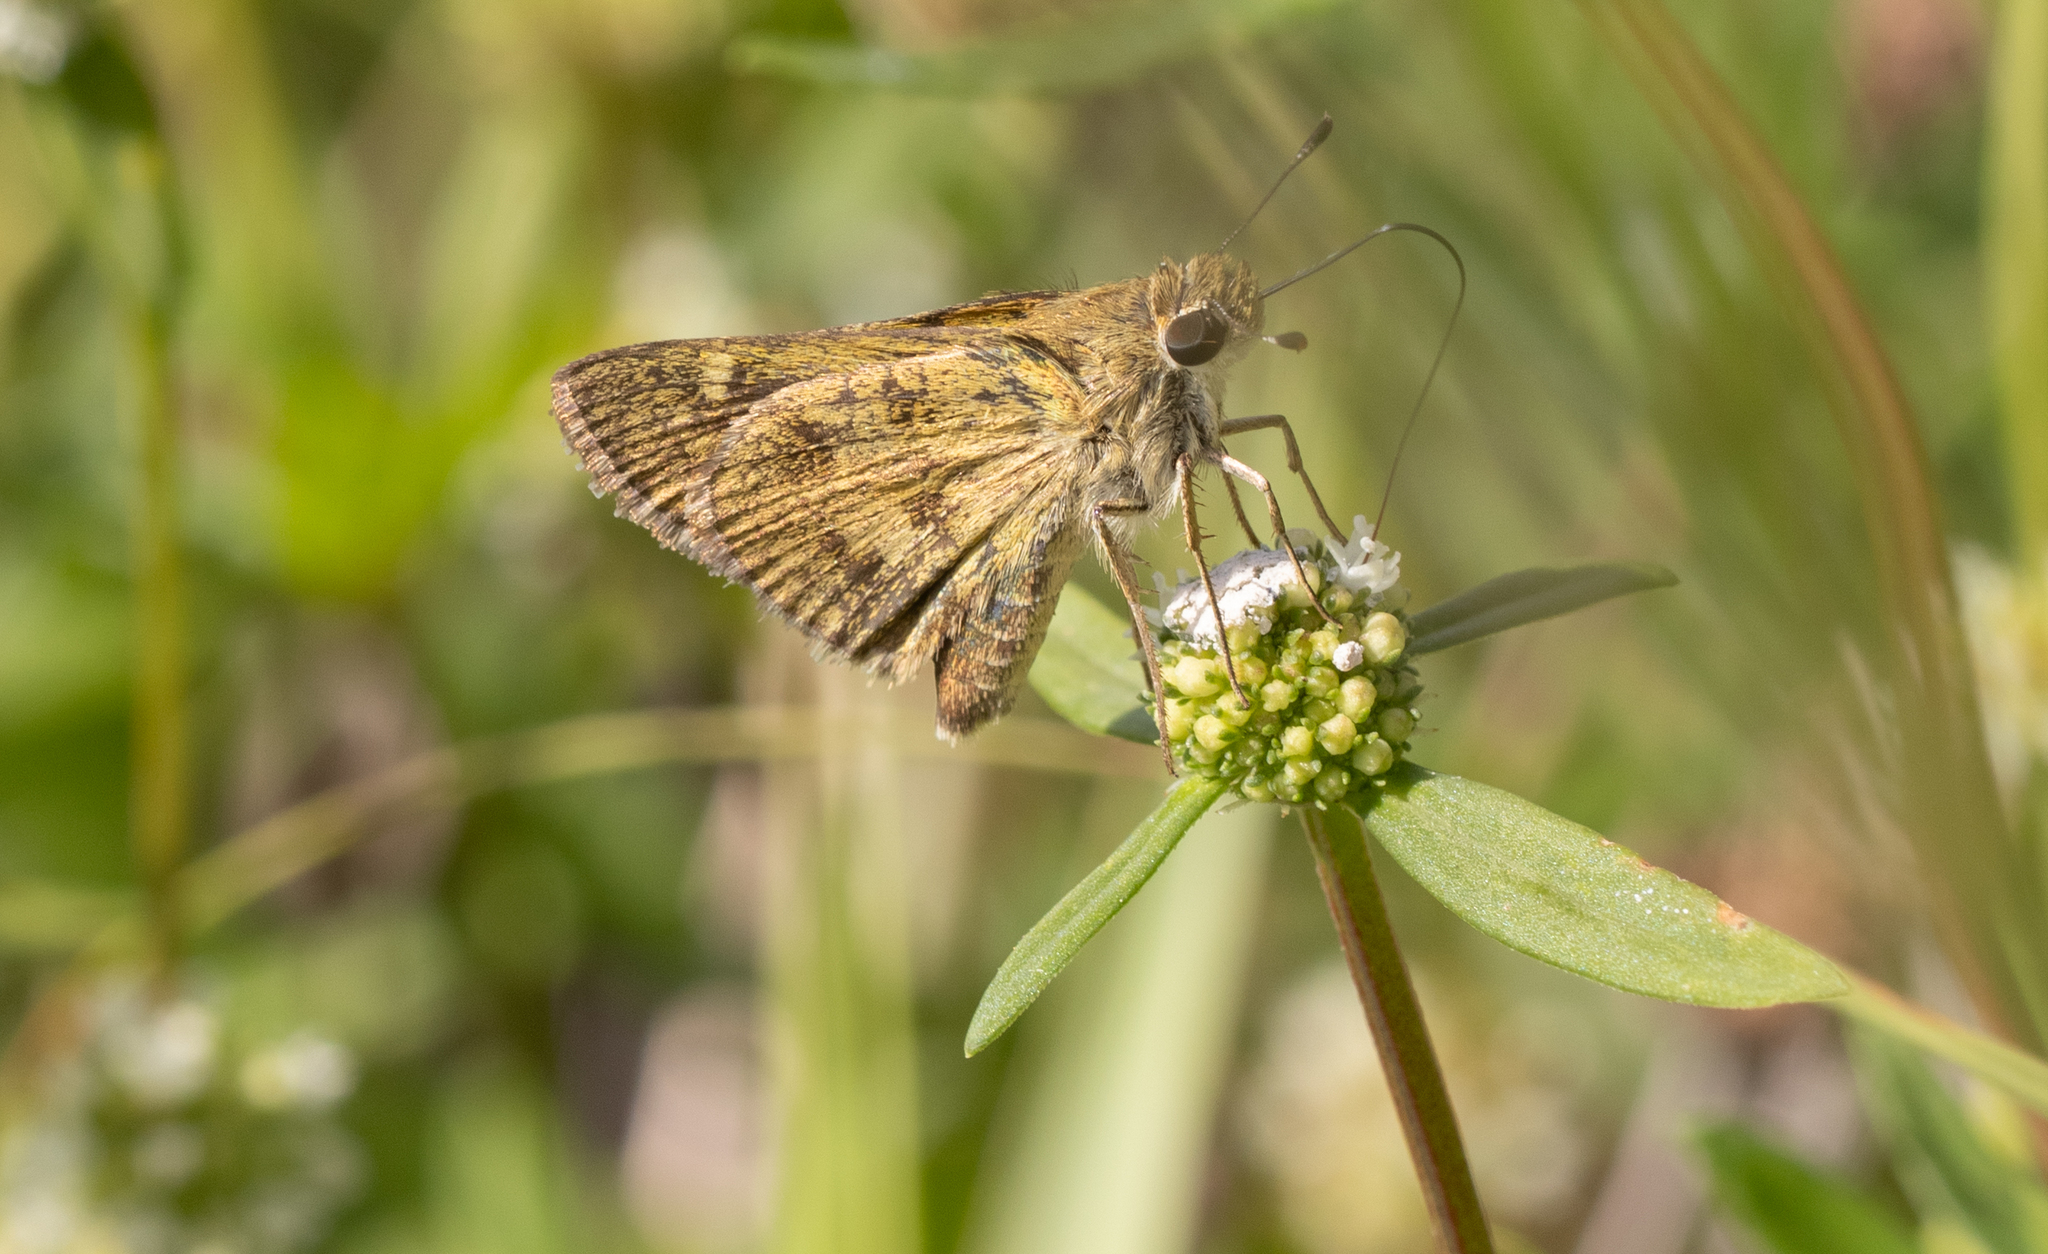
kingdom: Animalia
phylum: Arthropoda
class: Insecta
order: Lepidoptera
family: Hesperiidae
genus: Polites
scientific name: Polites vibex
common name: Whirlabout
